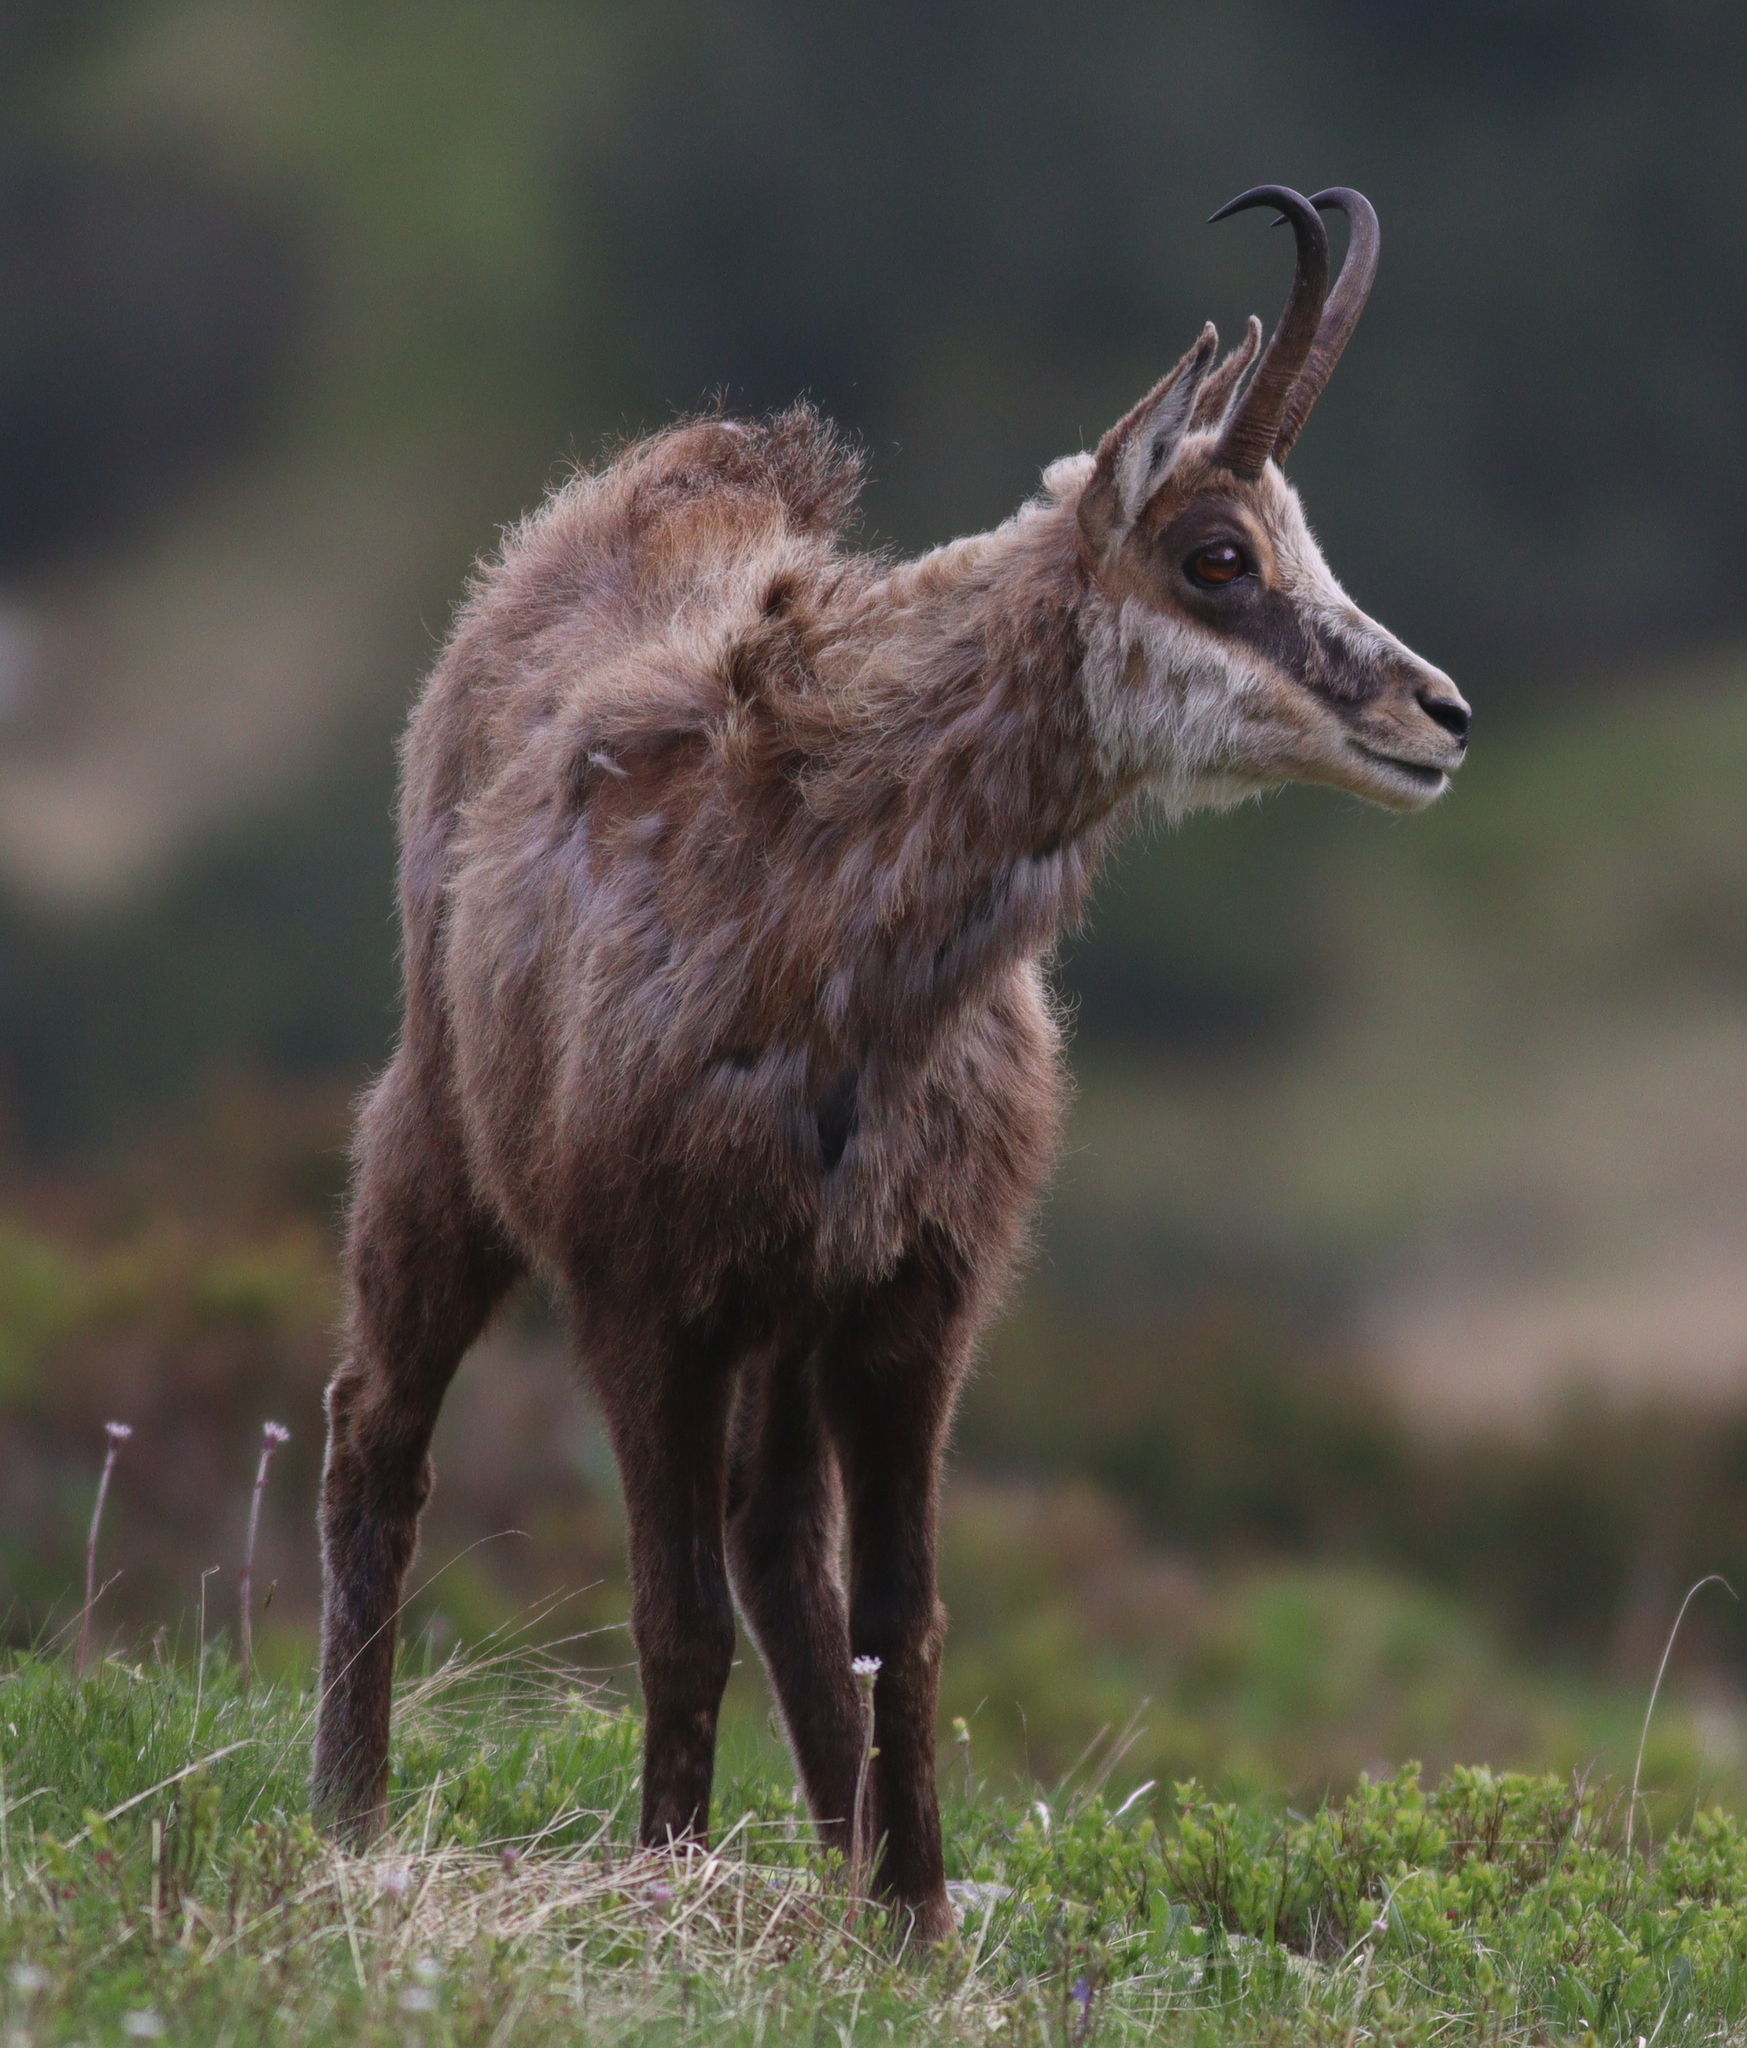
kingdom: Animalia
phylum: Chordata
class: Mammalia
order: Artiodactyla
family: Bovidae
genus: Rupicapra
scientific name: Rupicapra rupicapra
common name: Chamois
